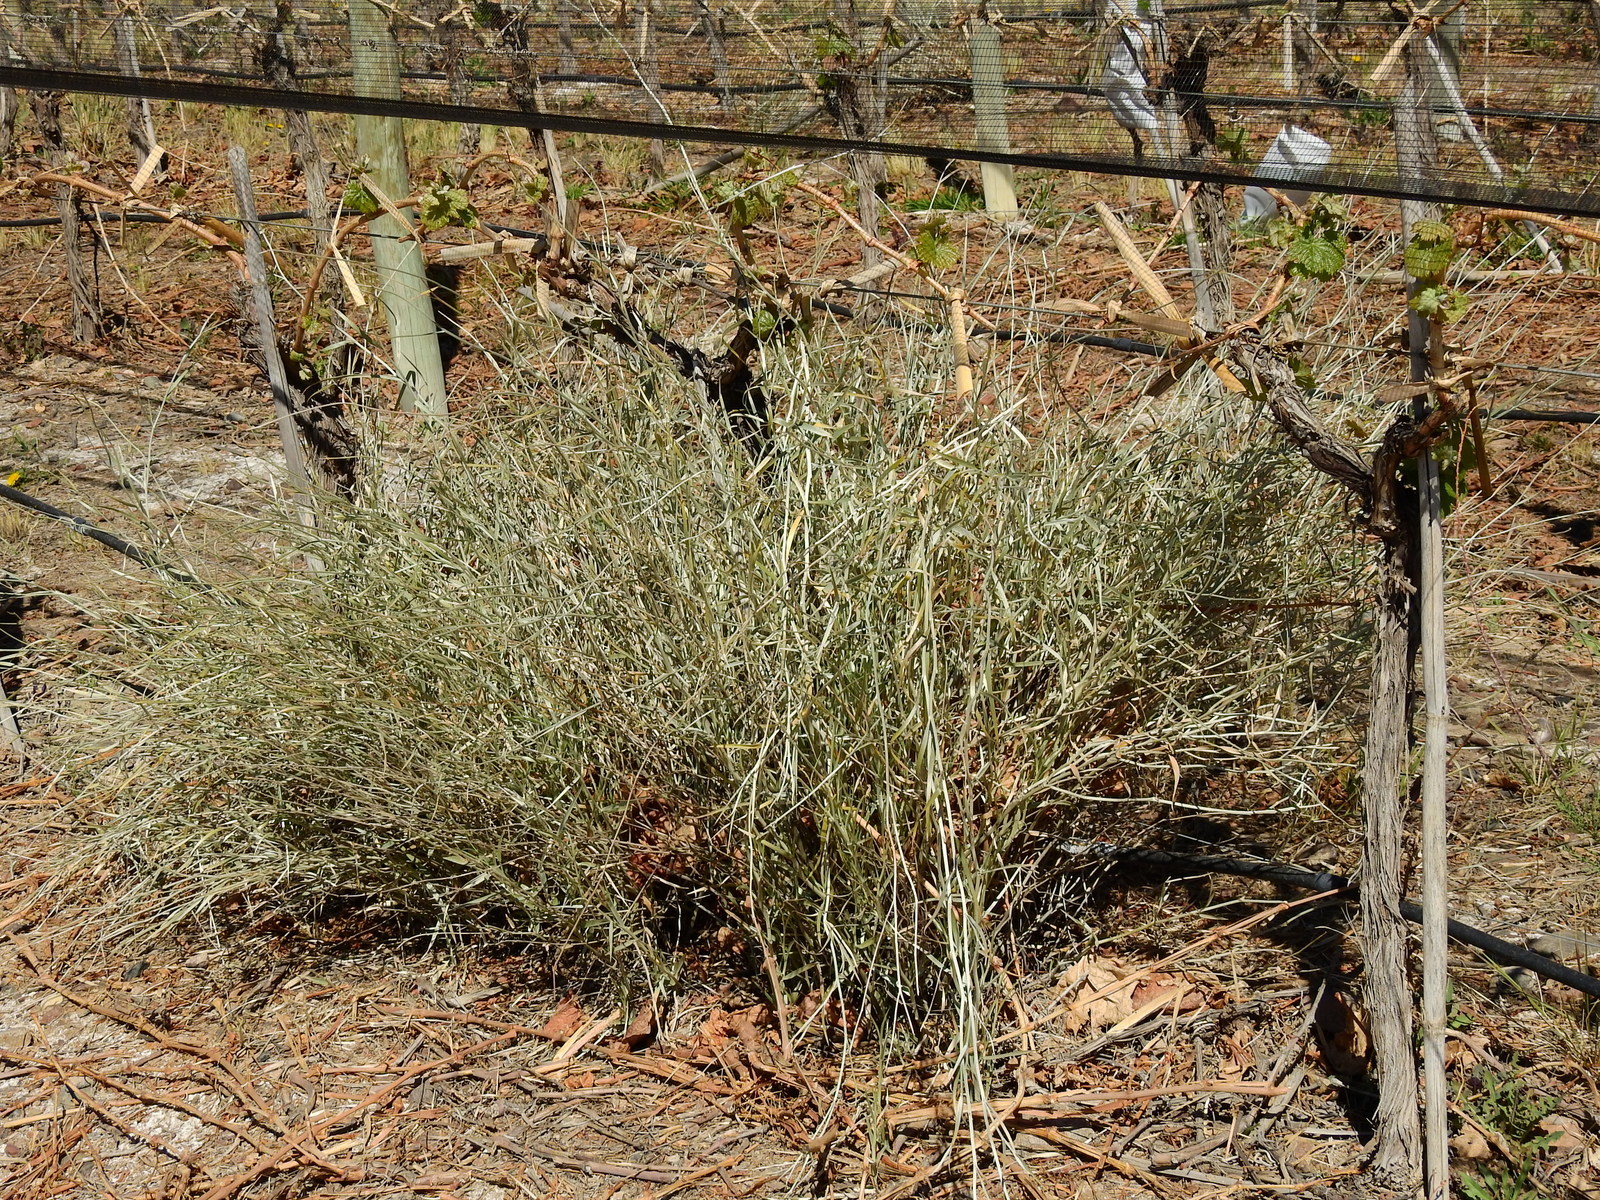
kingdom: Plantae
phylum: Tracheophyta
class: Magnoliopsida
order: Asterales
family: Asteraceae
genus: Hyalis
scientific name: Hyalis argentea
